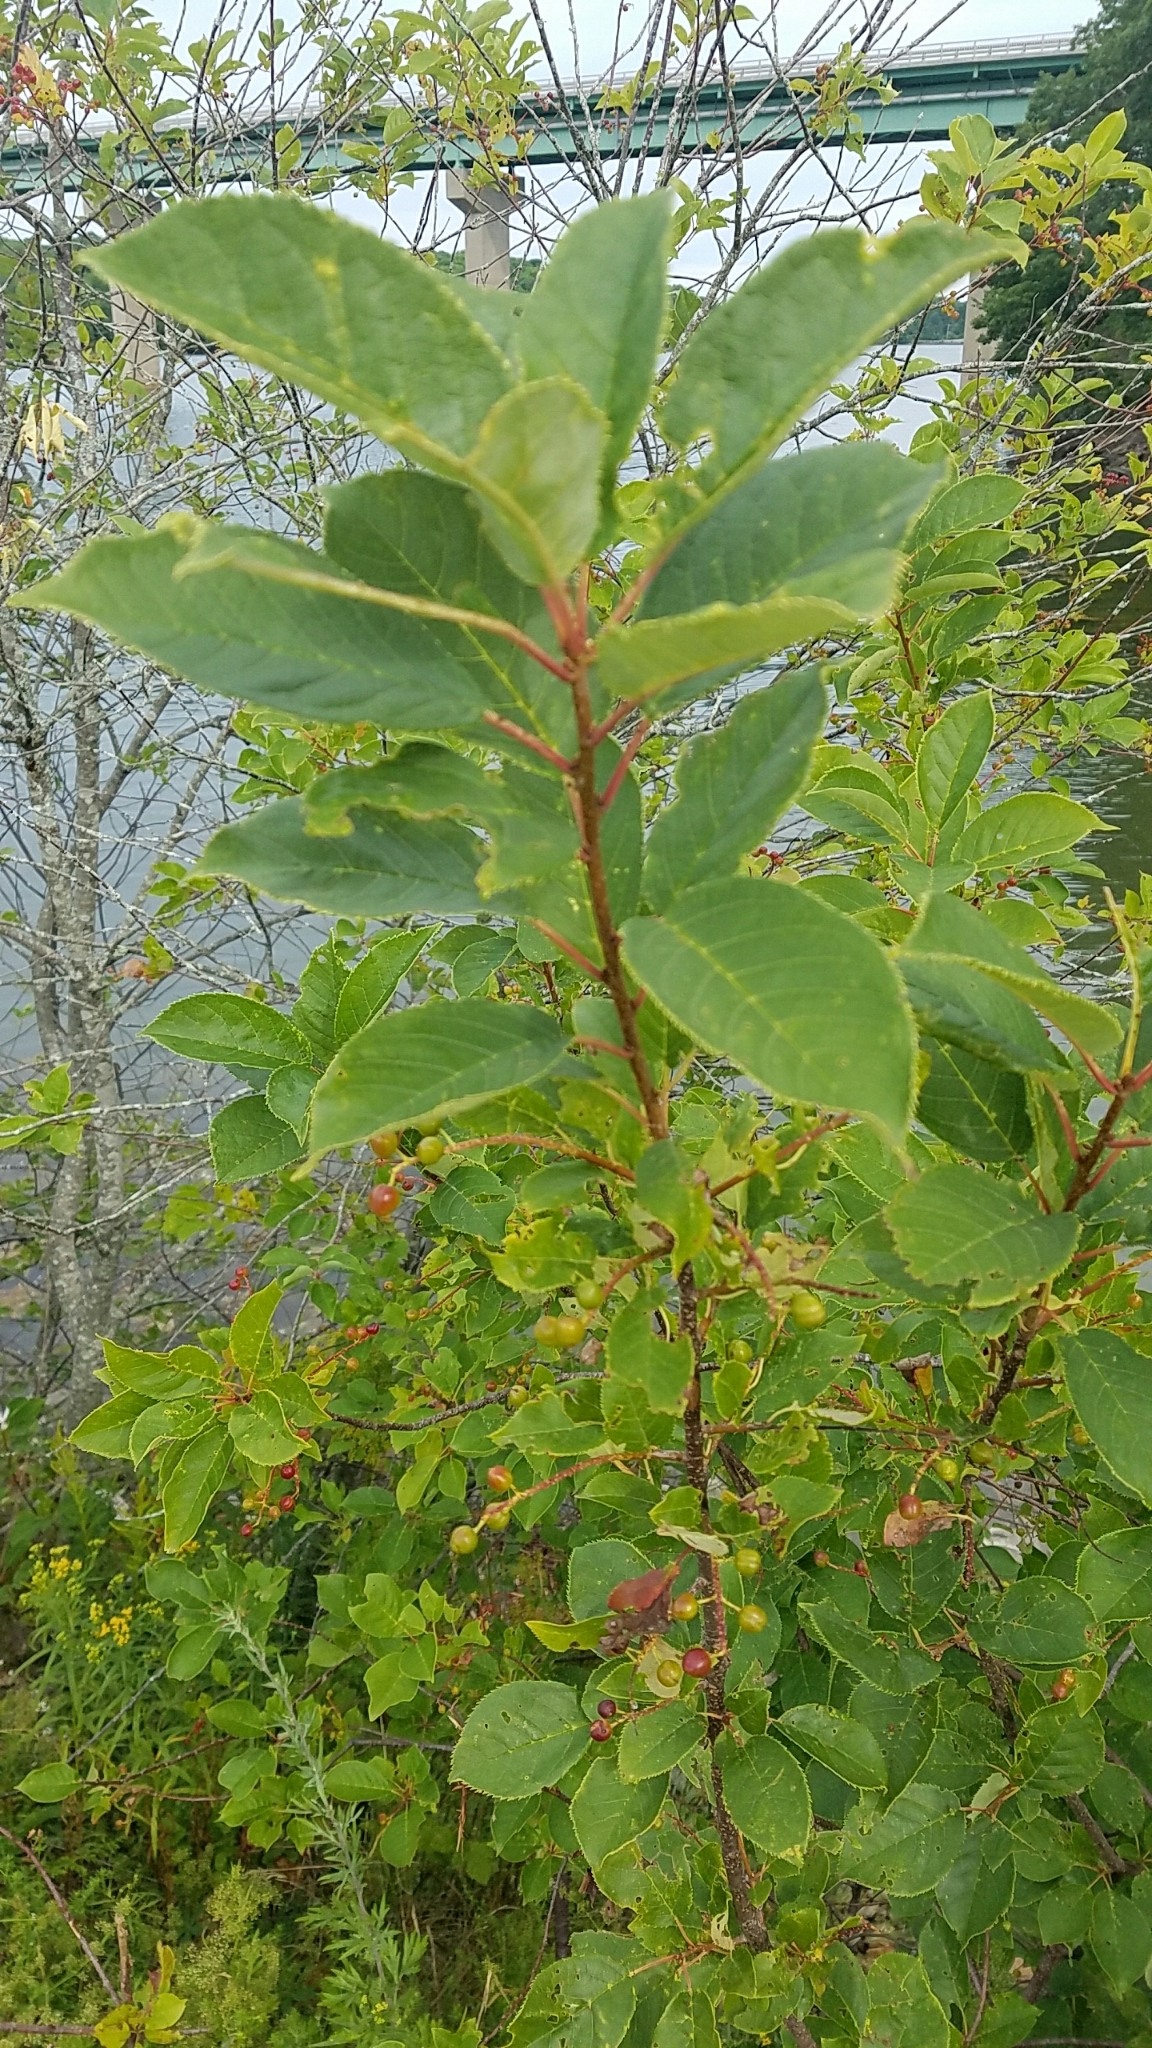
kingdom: Plantae
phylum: Tracheophyta
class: Magnoliopsida
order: Rosales
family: Rosaceae
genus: Prunus
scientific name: Prunus virginiana
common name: Chokecherry
